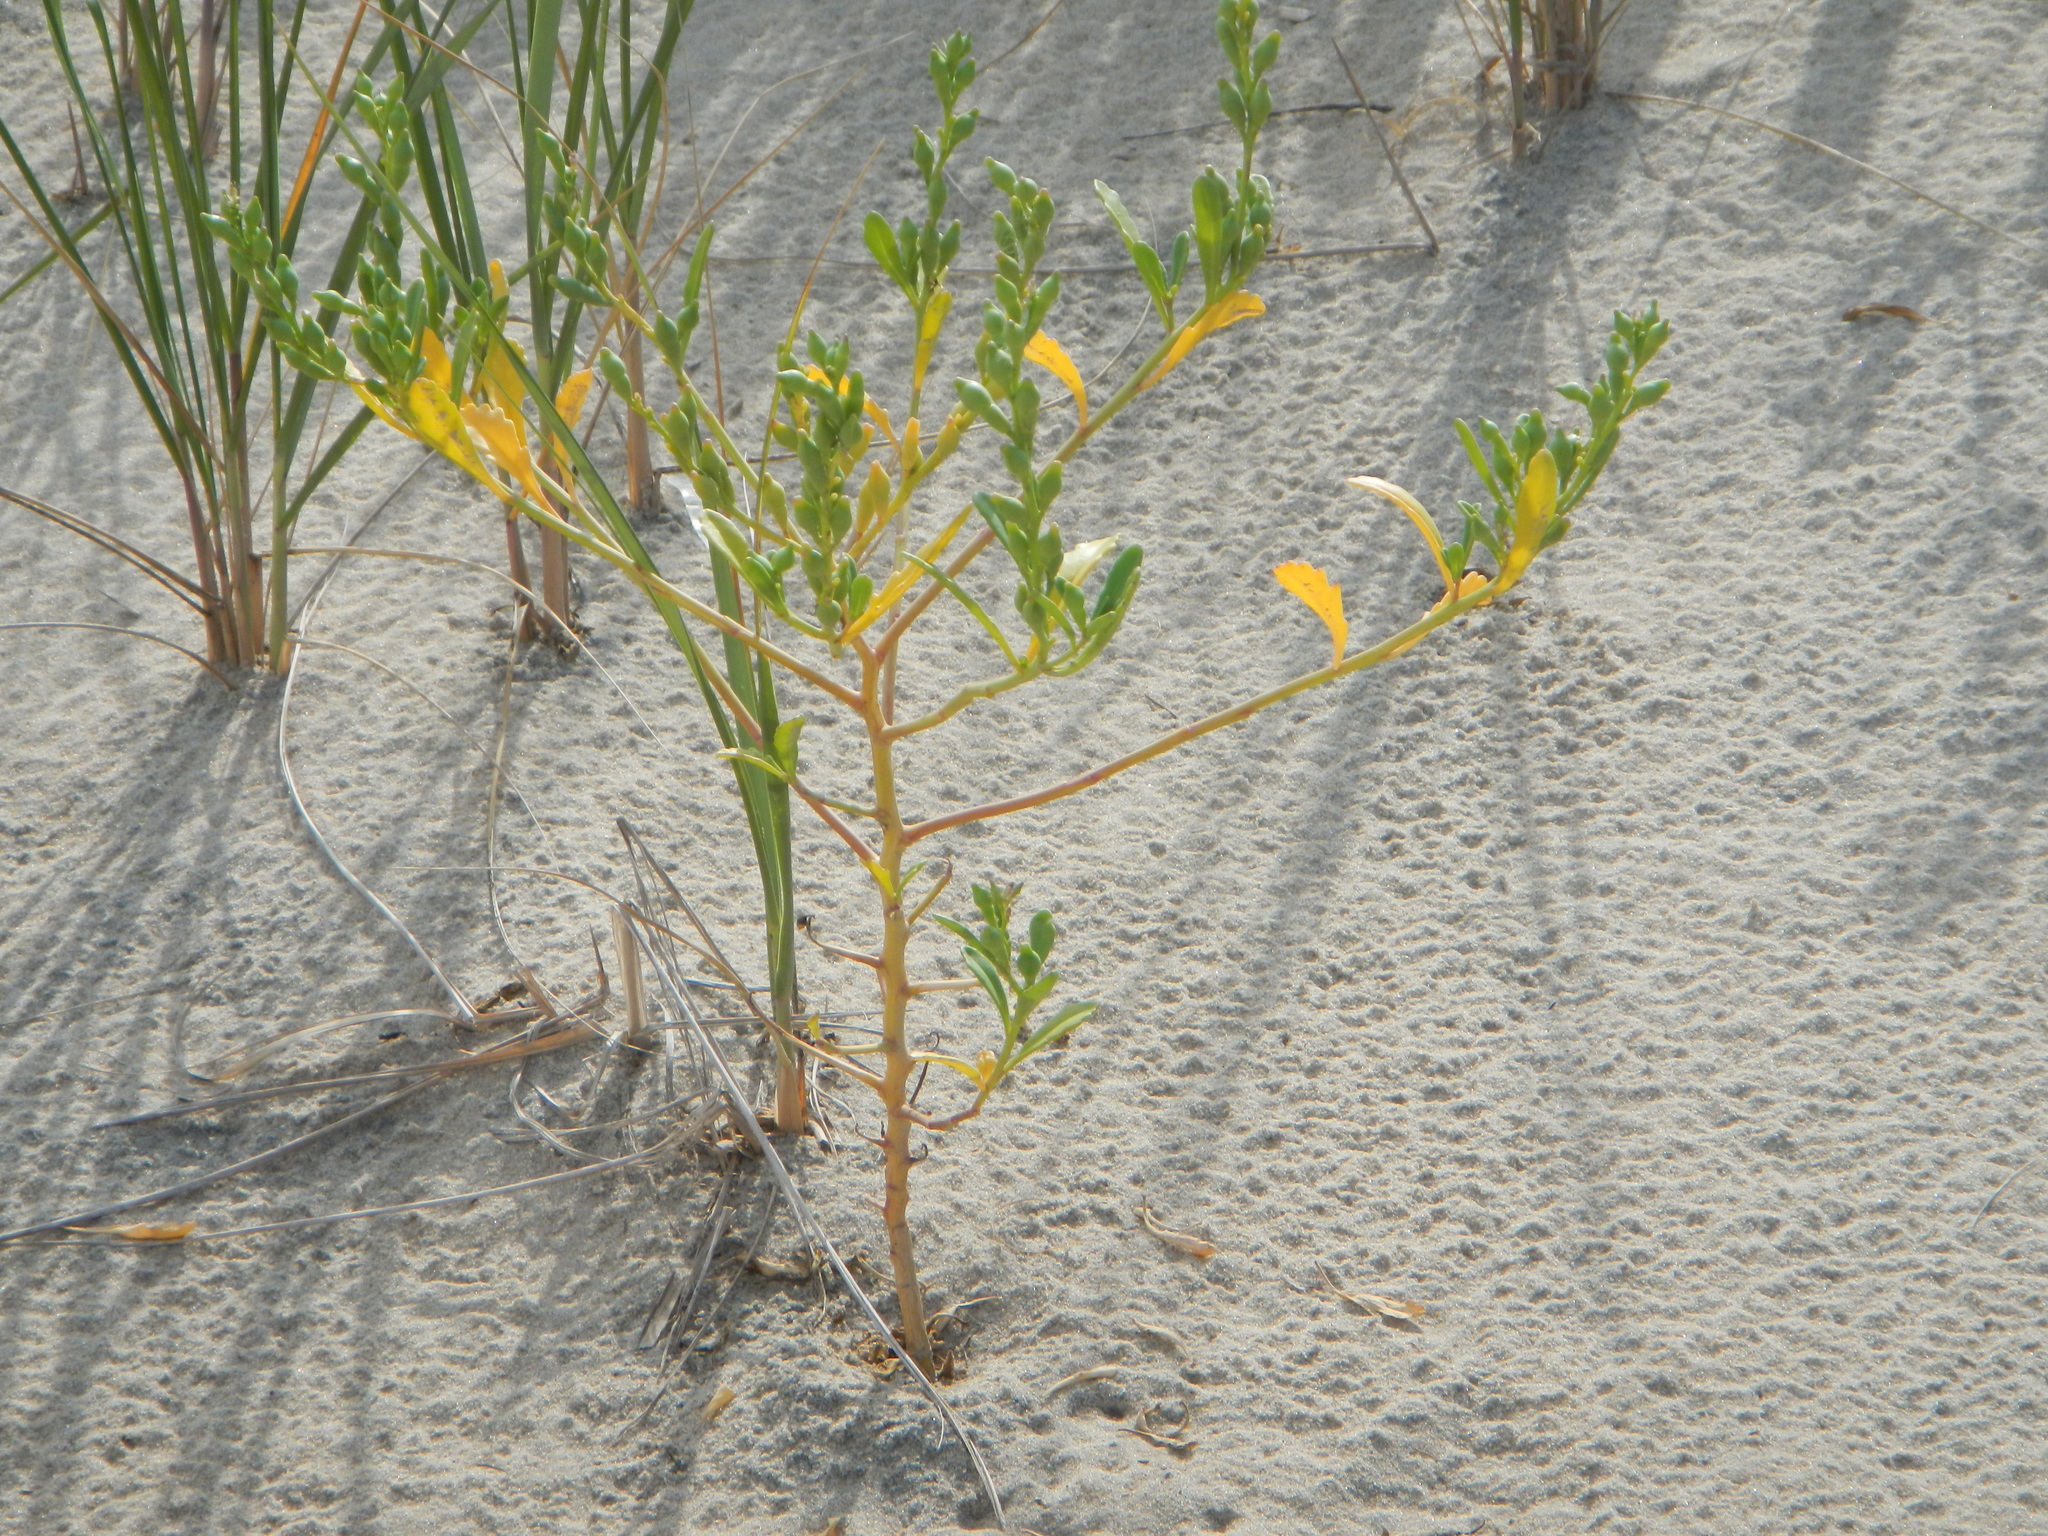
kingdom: Plantae
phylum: Tracheophyta
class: Magnoliopsida
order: Brassicales
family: Brassicaceae
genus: Cakile
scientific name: Cakile edentula
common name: American sea rocket
